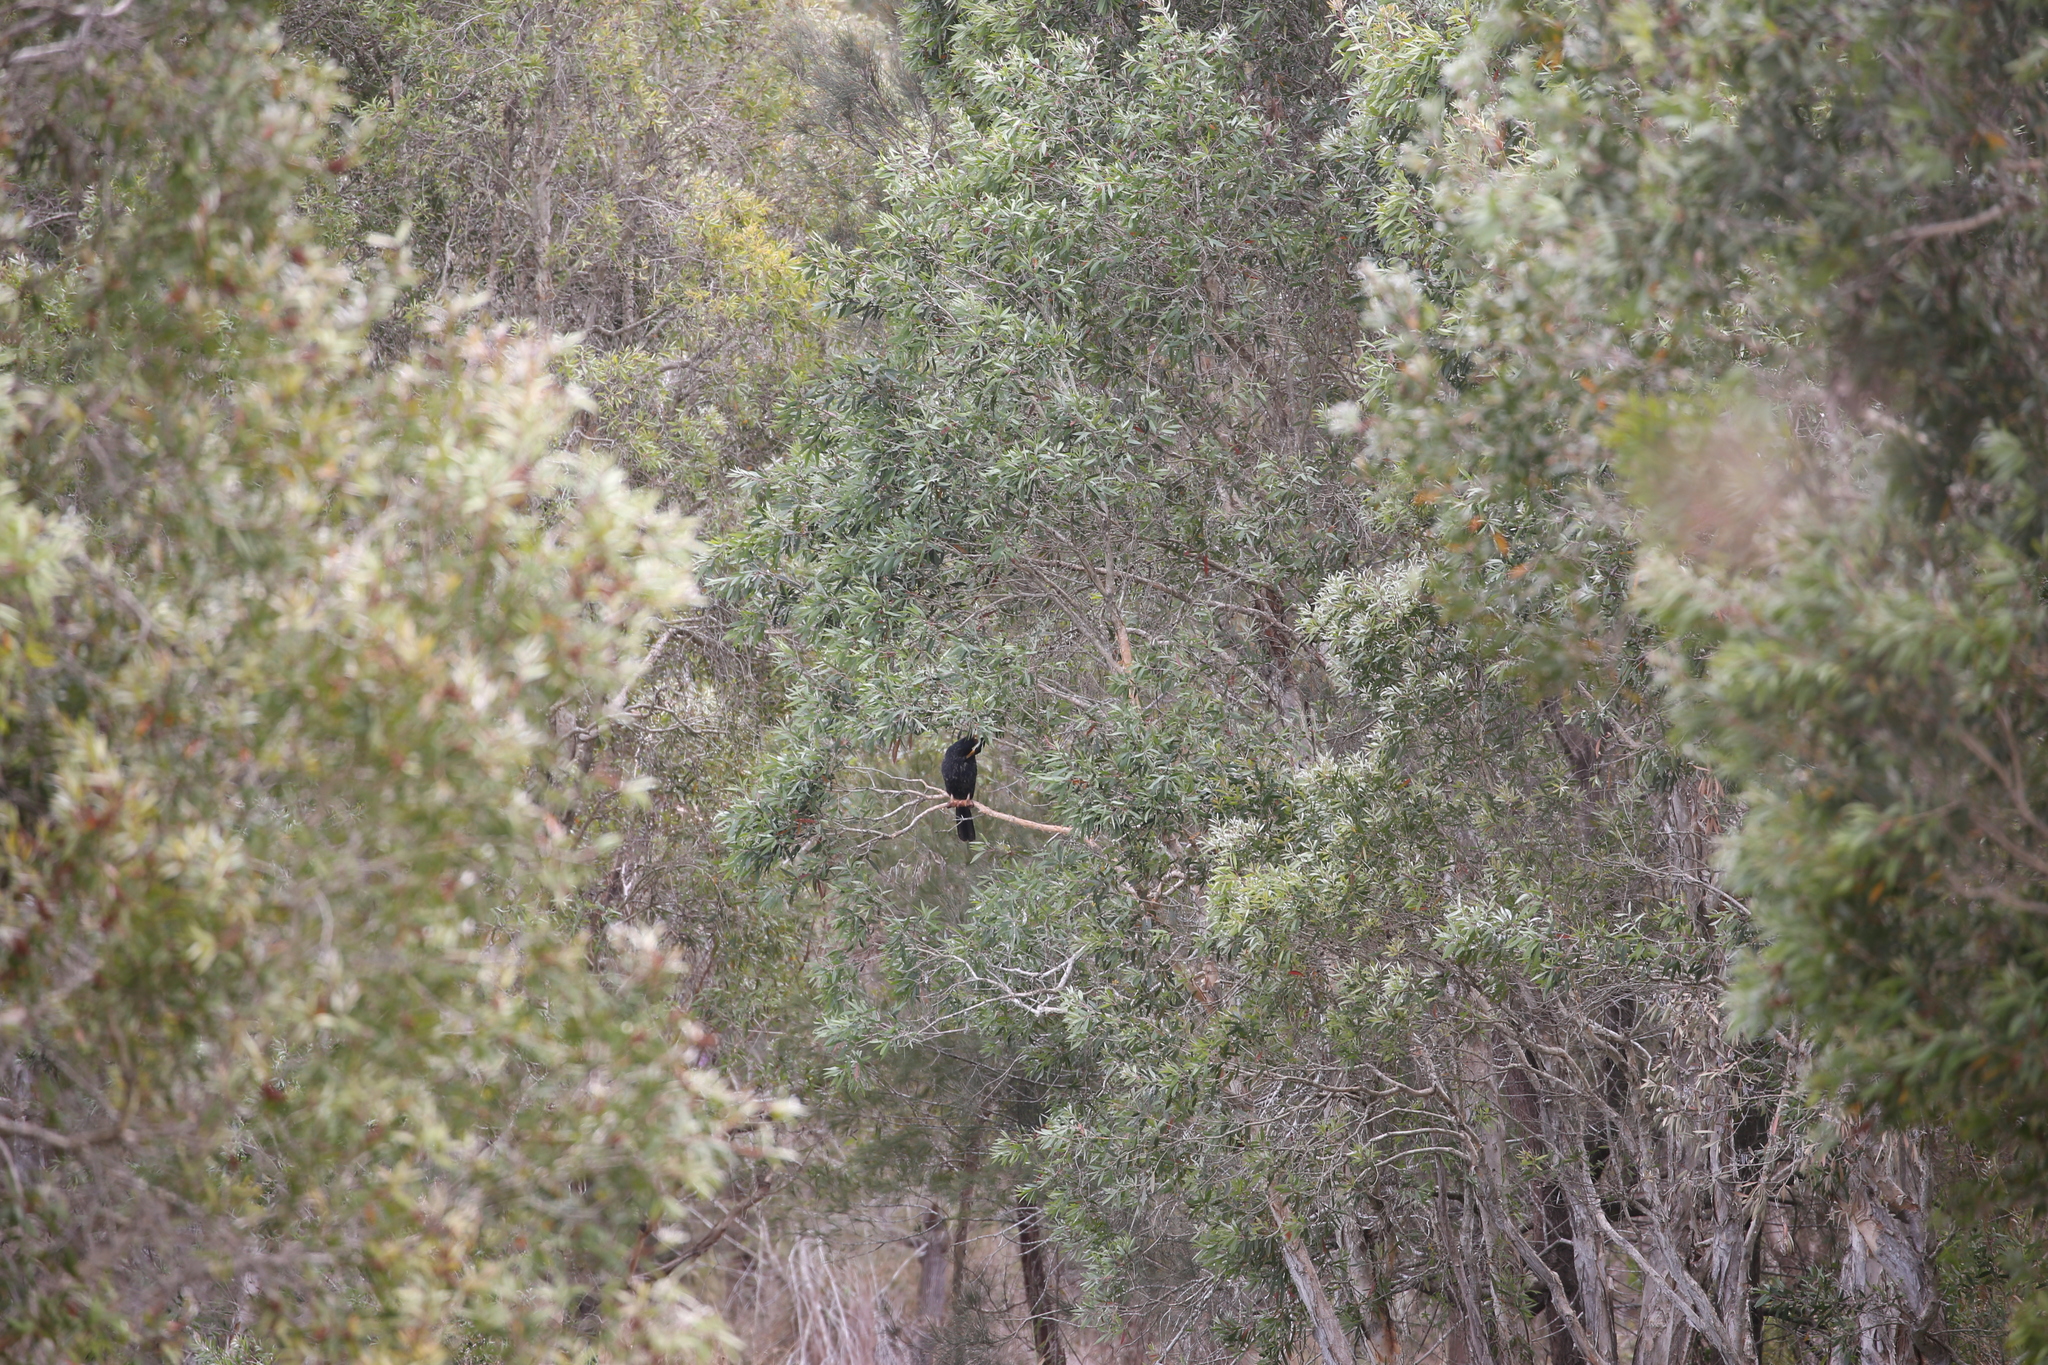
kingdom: Animalia
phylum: Chordata
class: Aves
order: Suliformes
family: Anhingidae
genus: Anhinga
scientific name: Anhinga novaehollandiae
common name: Australasian darter
